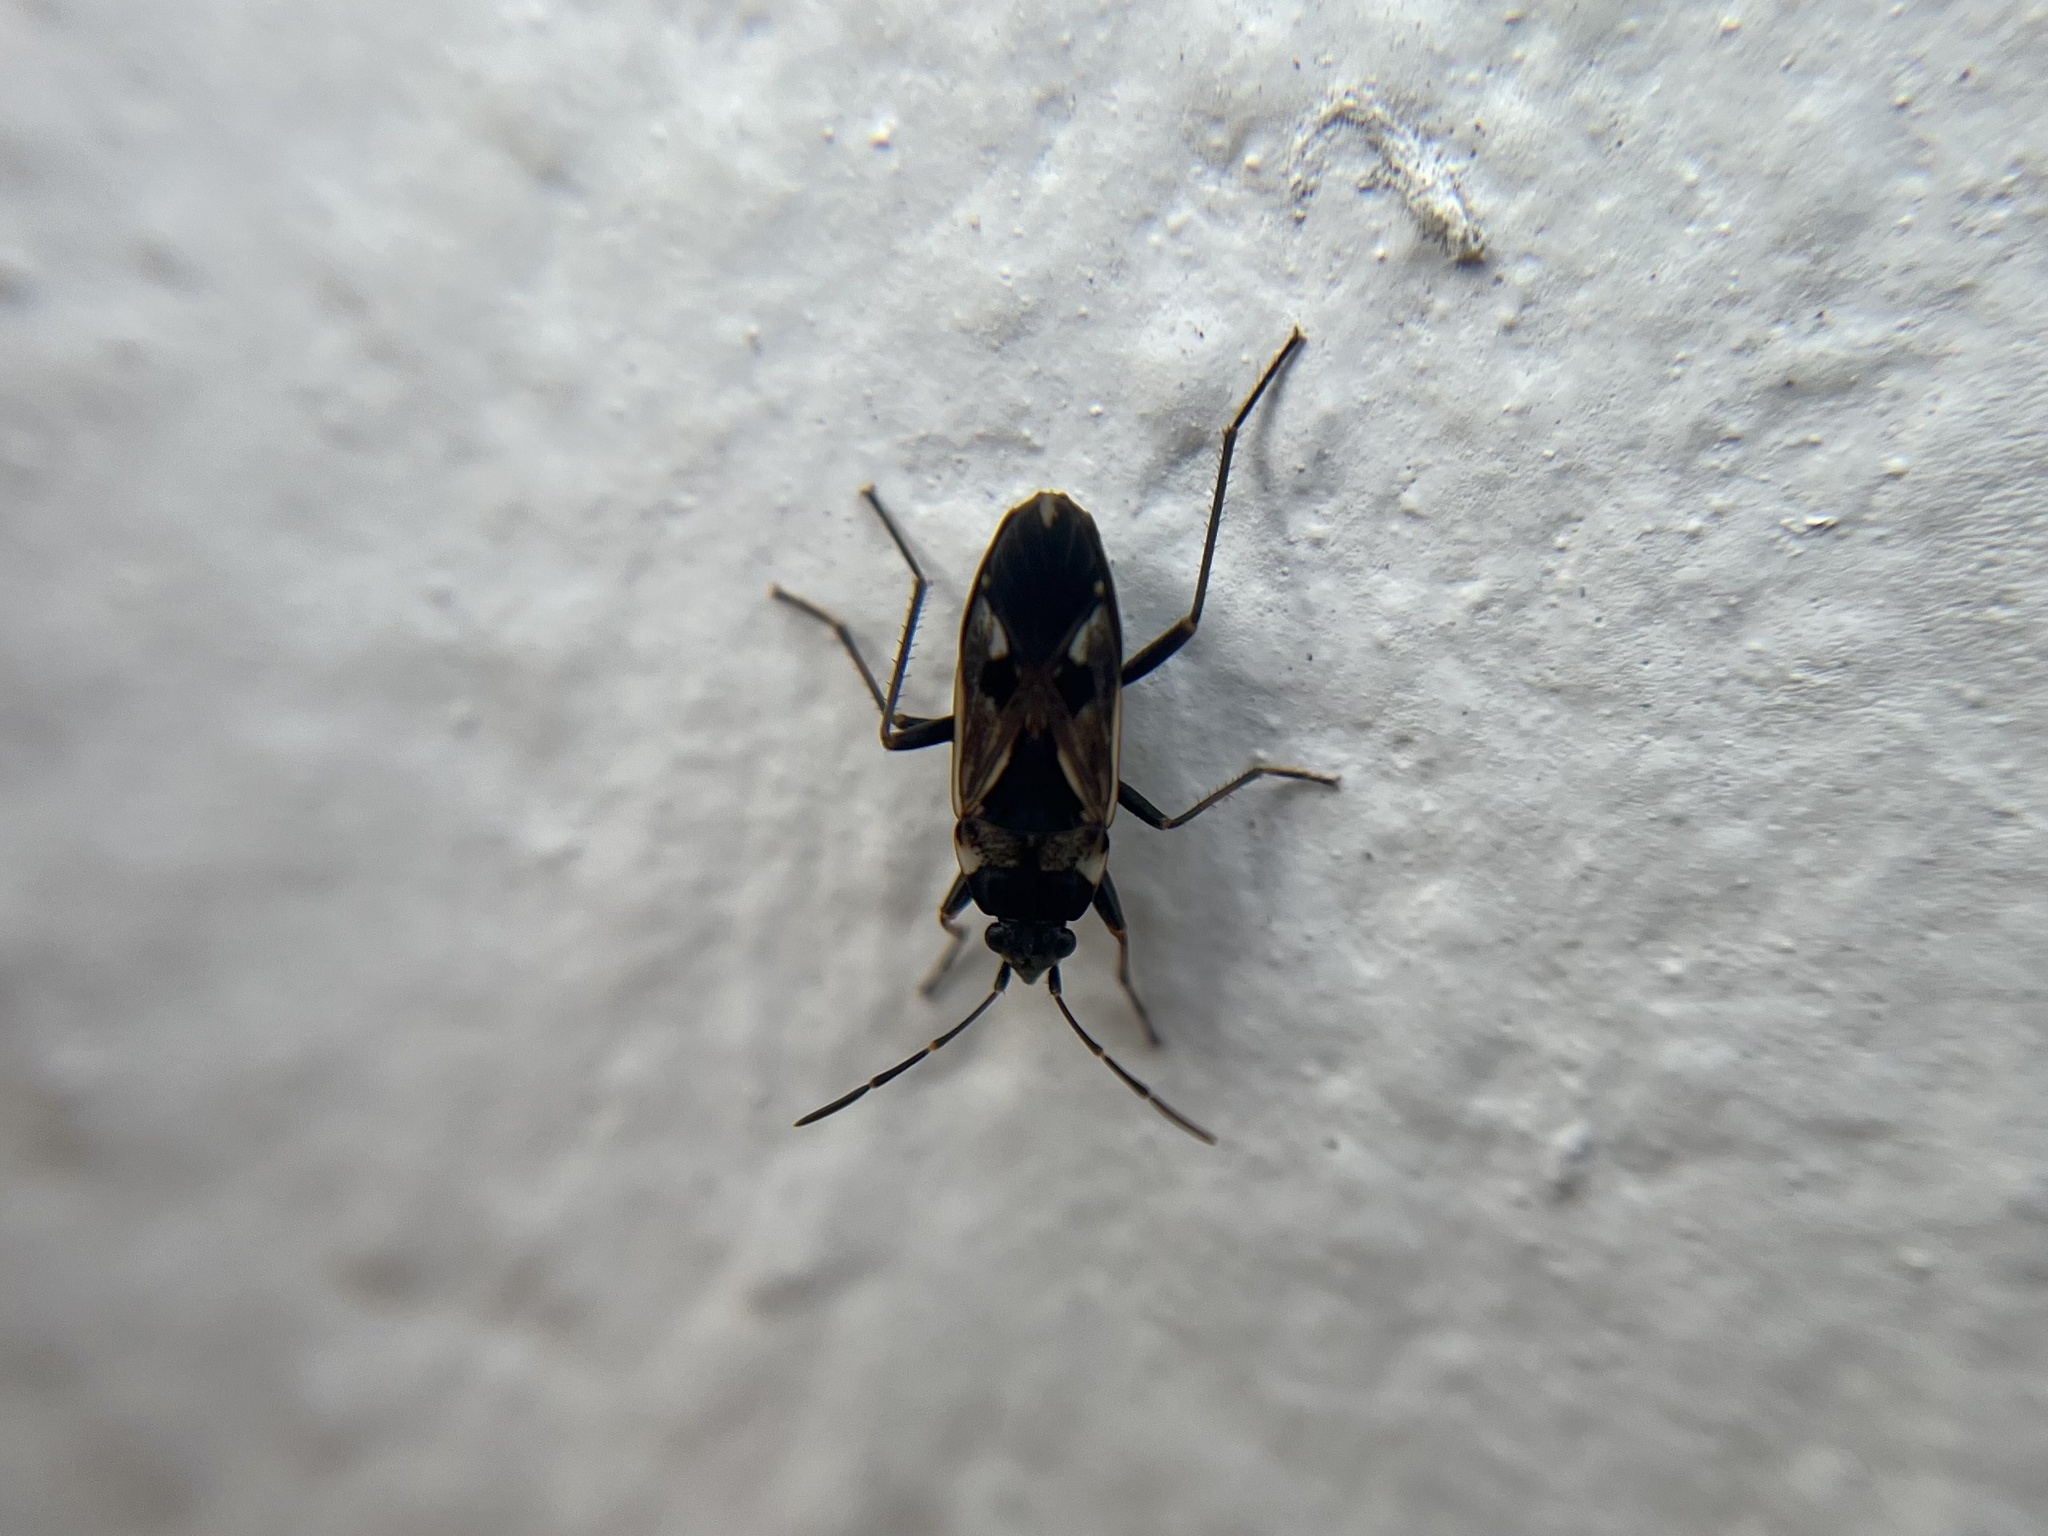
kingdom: Animalia
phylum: Arthropoda
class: Insecta
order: Hemiptera
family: Rhyparochromidae
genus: Rhyparochromus
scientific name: Rhyparochromus vulgaris
